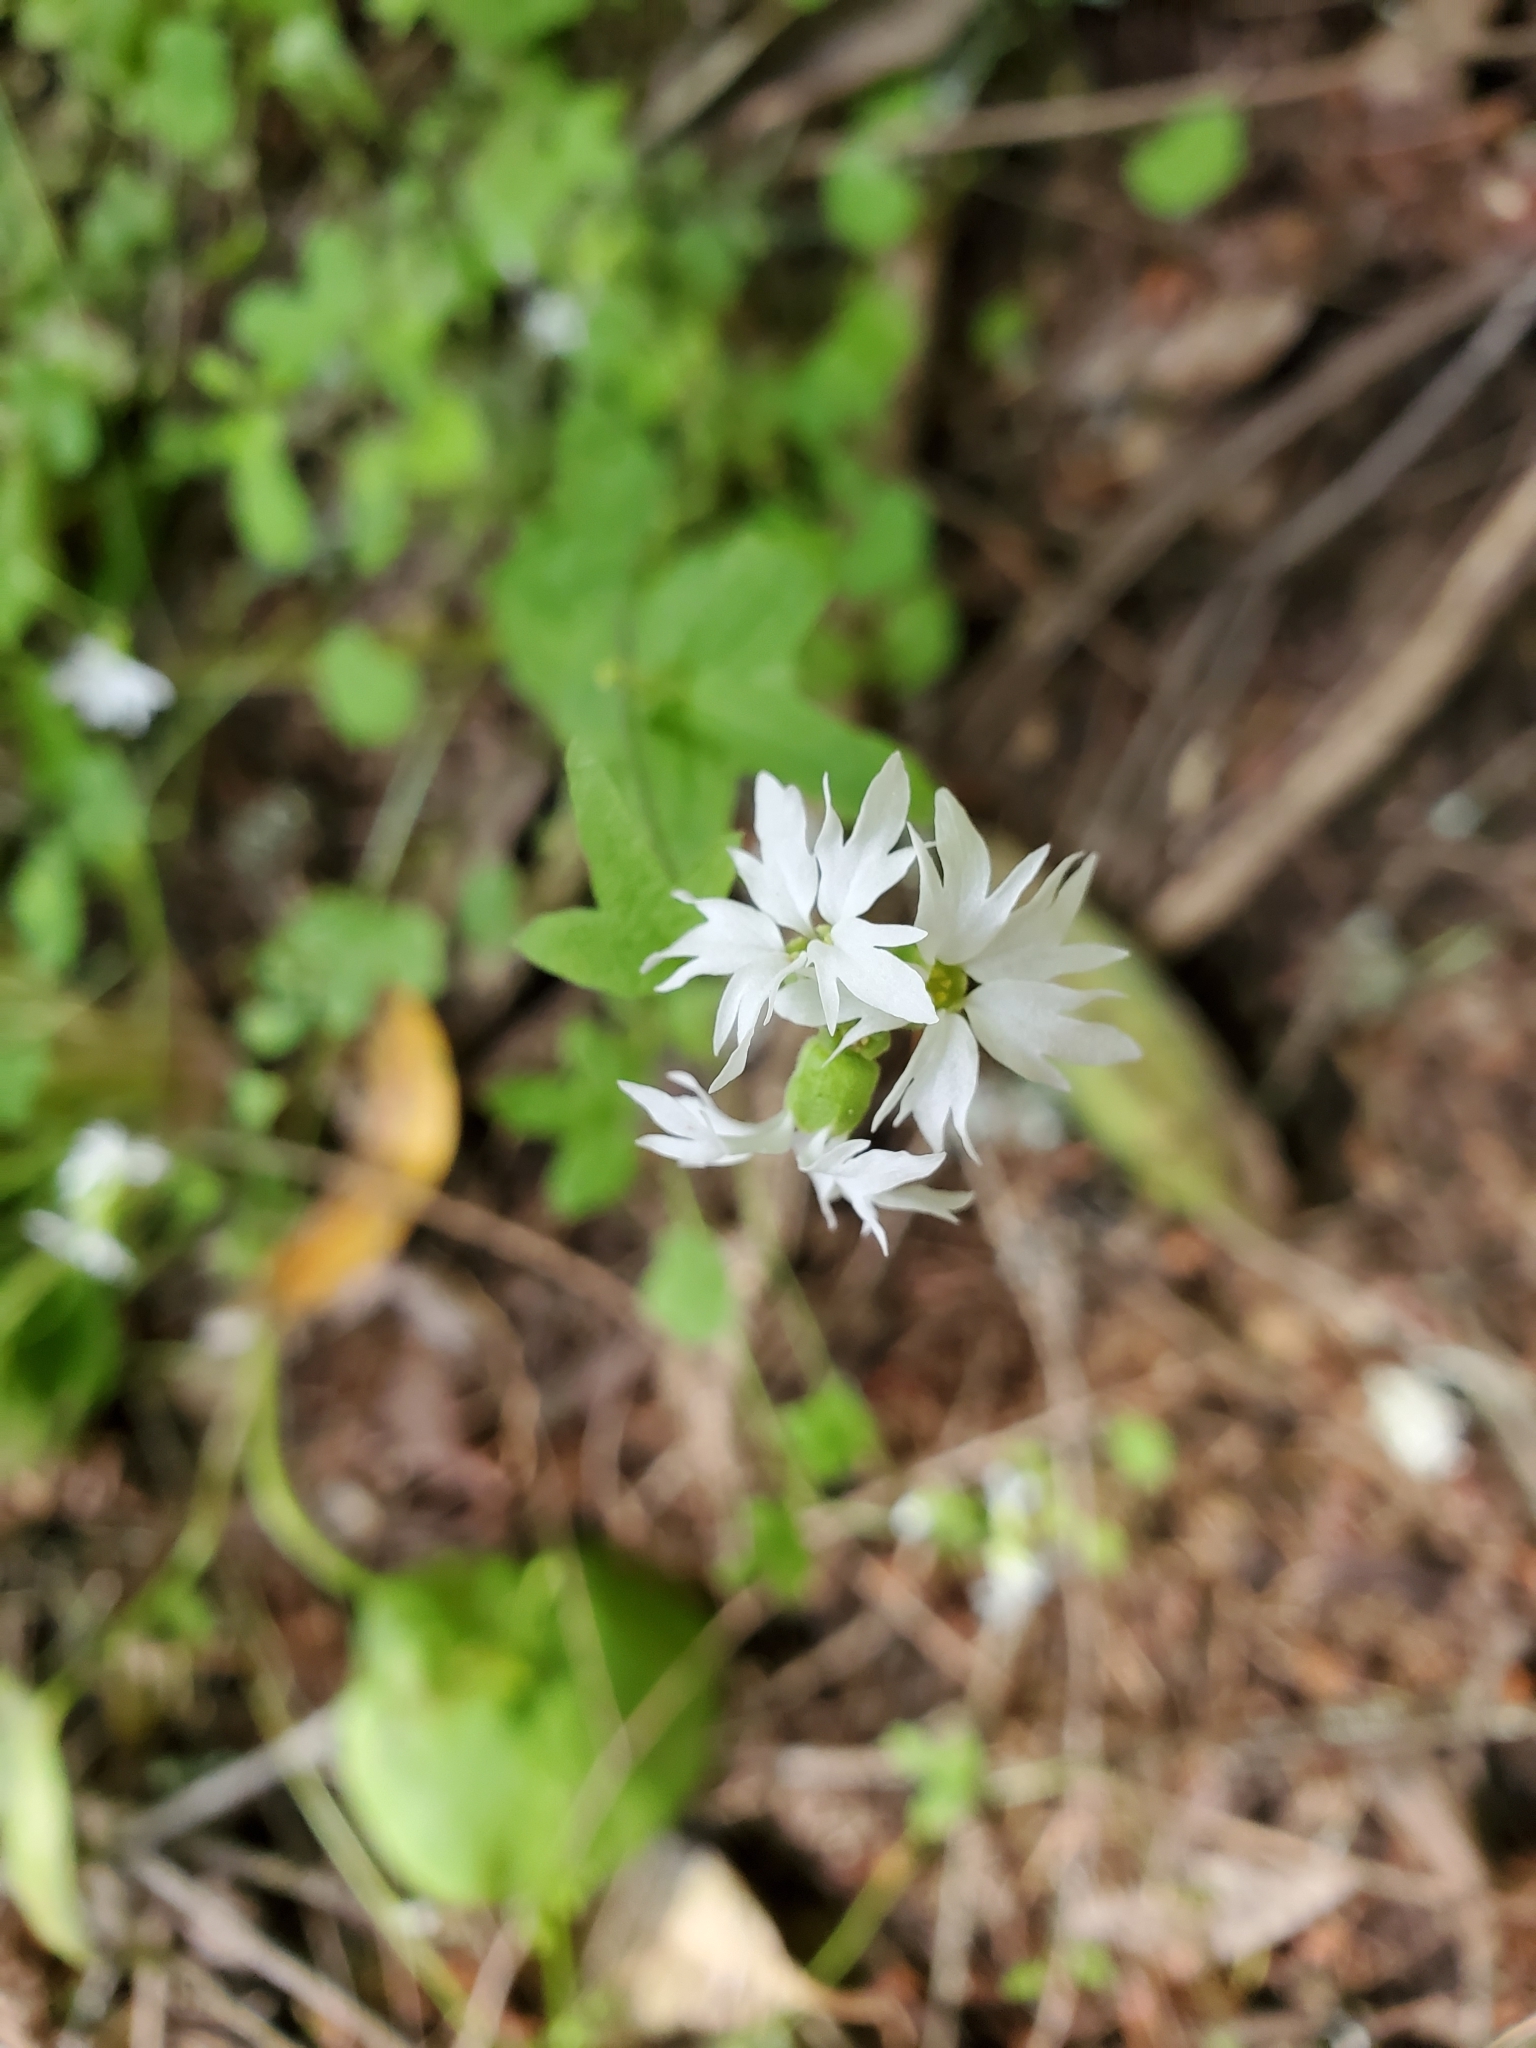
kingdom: Plantae
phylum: Tracheophyta
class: Magnoliopsida
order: Saxifragales
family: Saxifragaceae
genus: Lithophragma
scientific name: Lithophragma heterophyllum
